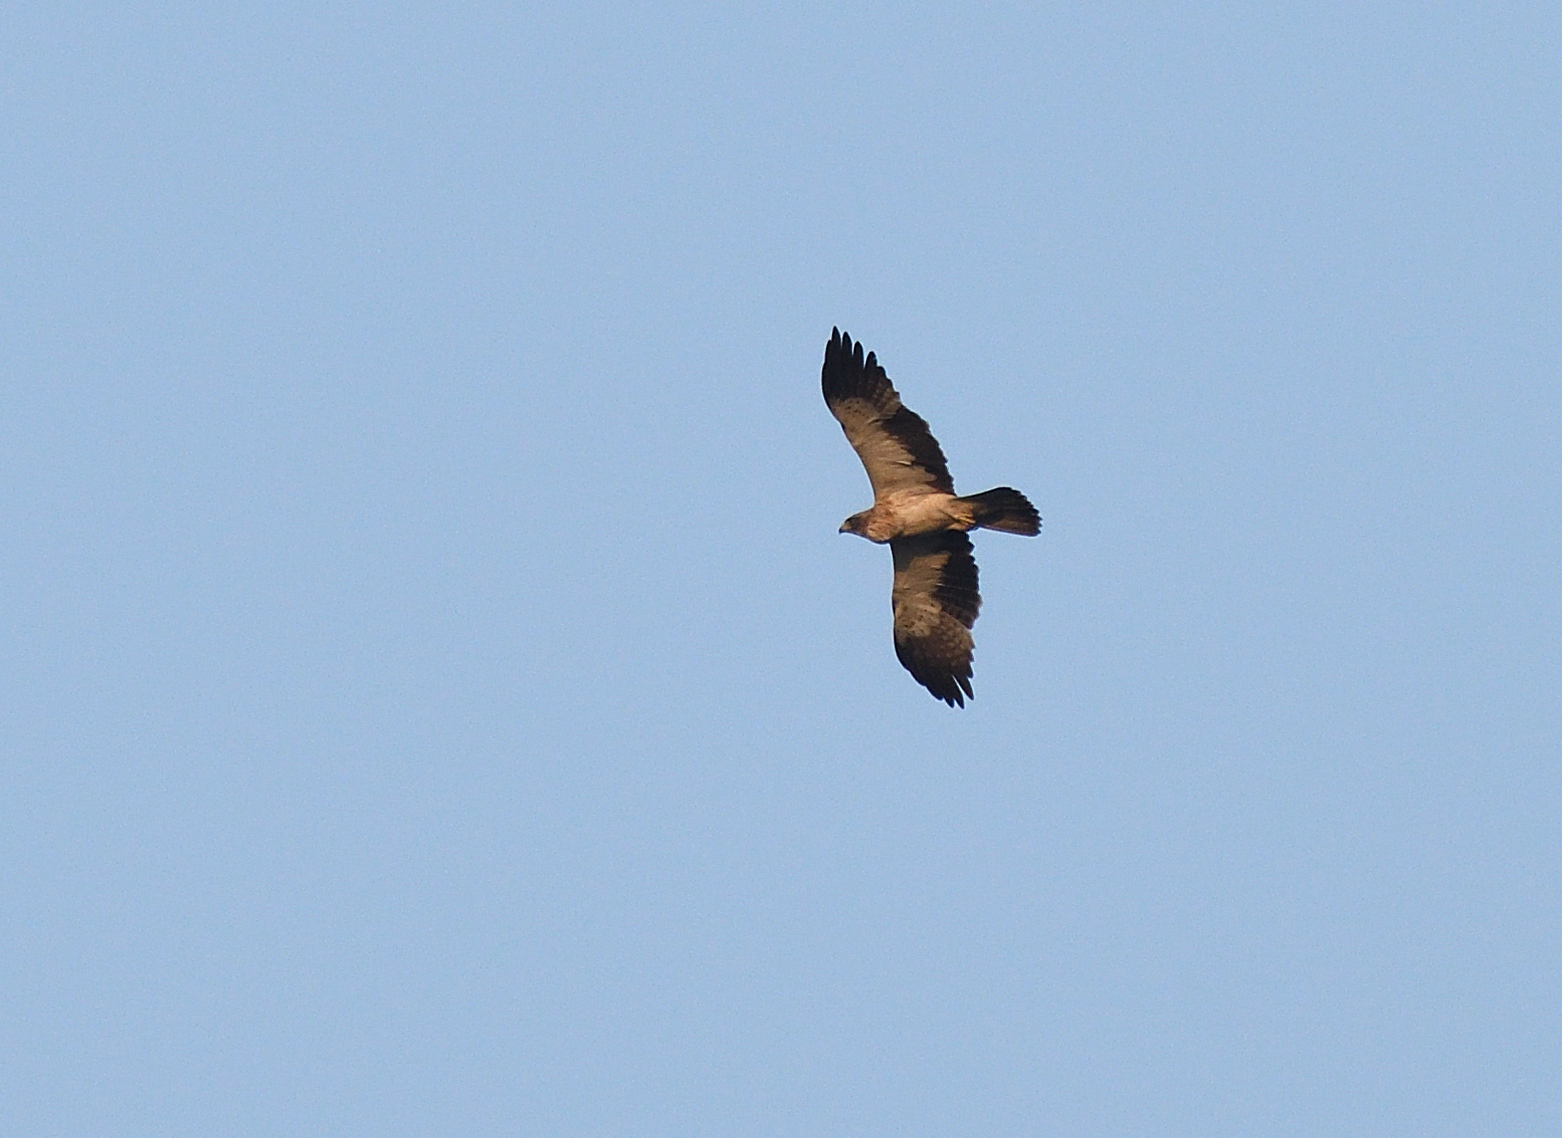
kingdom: Animalia
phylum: Chordata
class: Aves
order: Accipitriformes
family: Accipitridae
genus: Hieraaetus
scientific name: Hieraaetus pennatus
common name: Booted eagle
